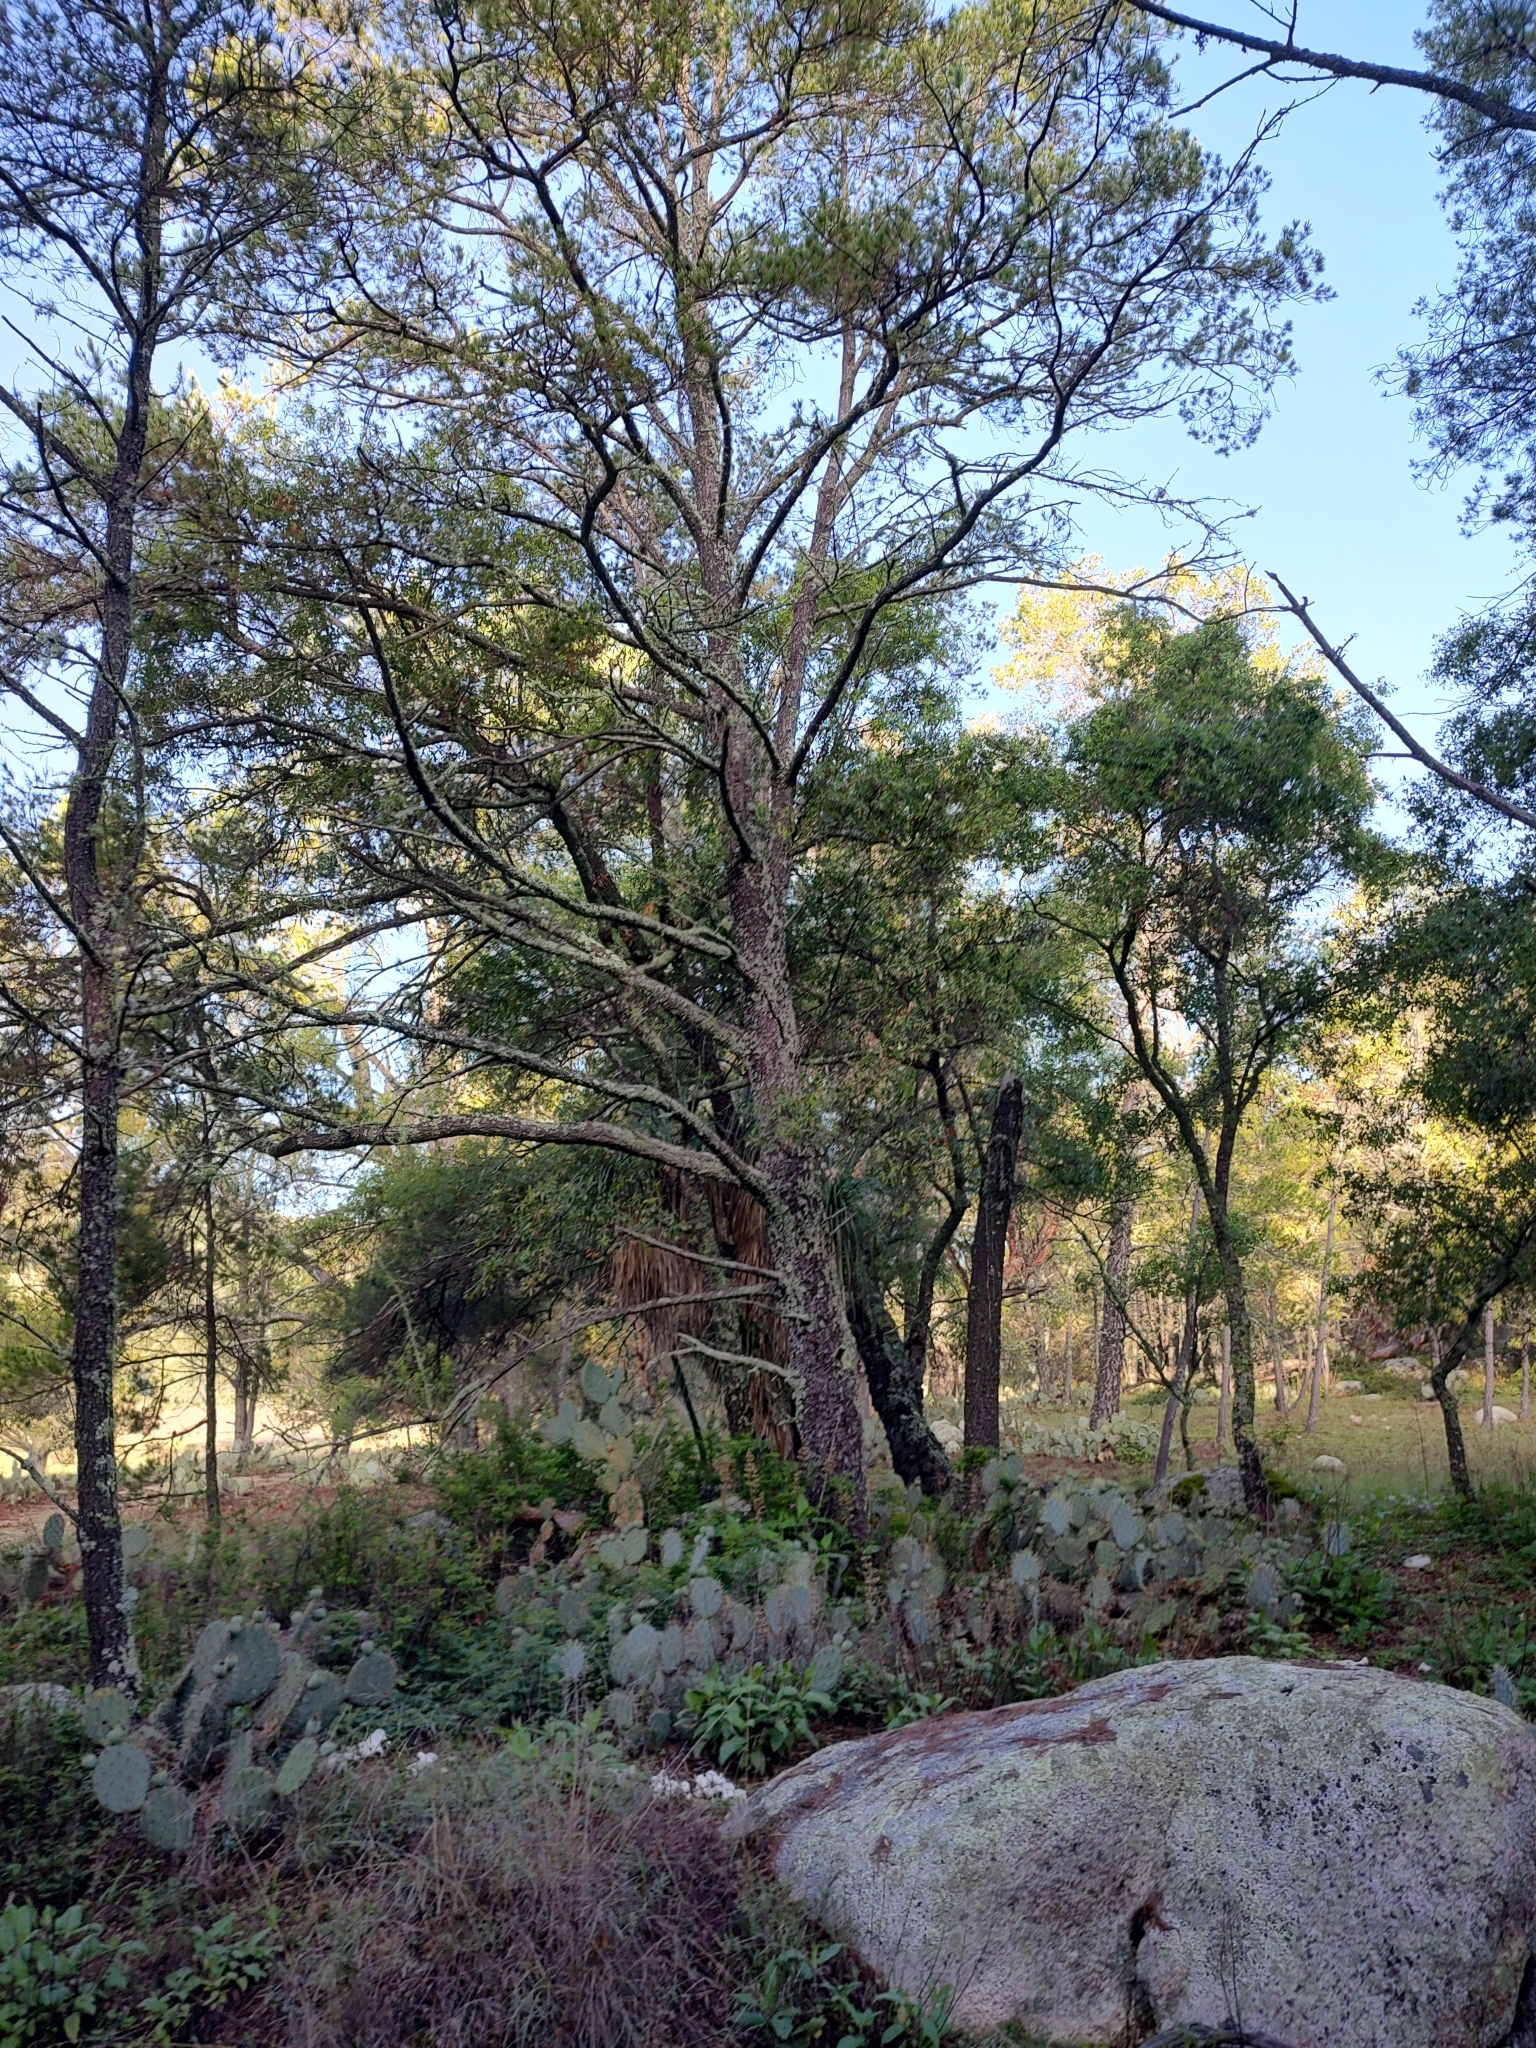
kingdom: Plantae
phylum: Tracheophyta
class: Pinopsida
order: Pinales
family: Pinaceae
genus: Pinus
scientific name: Pinus cembroides
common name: Mexican nut pine
